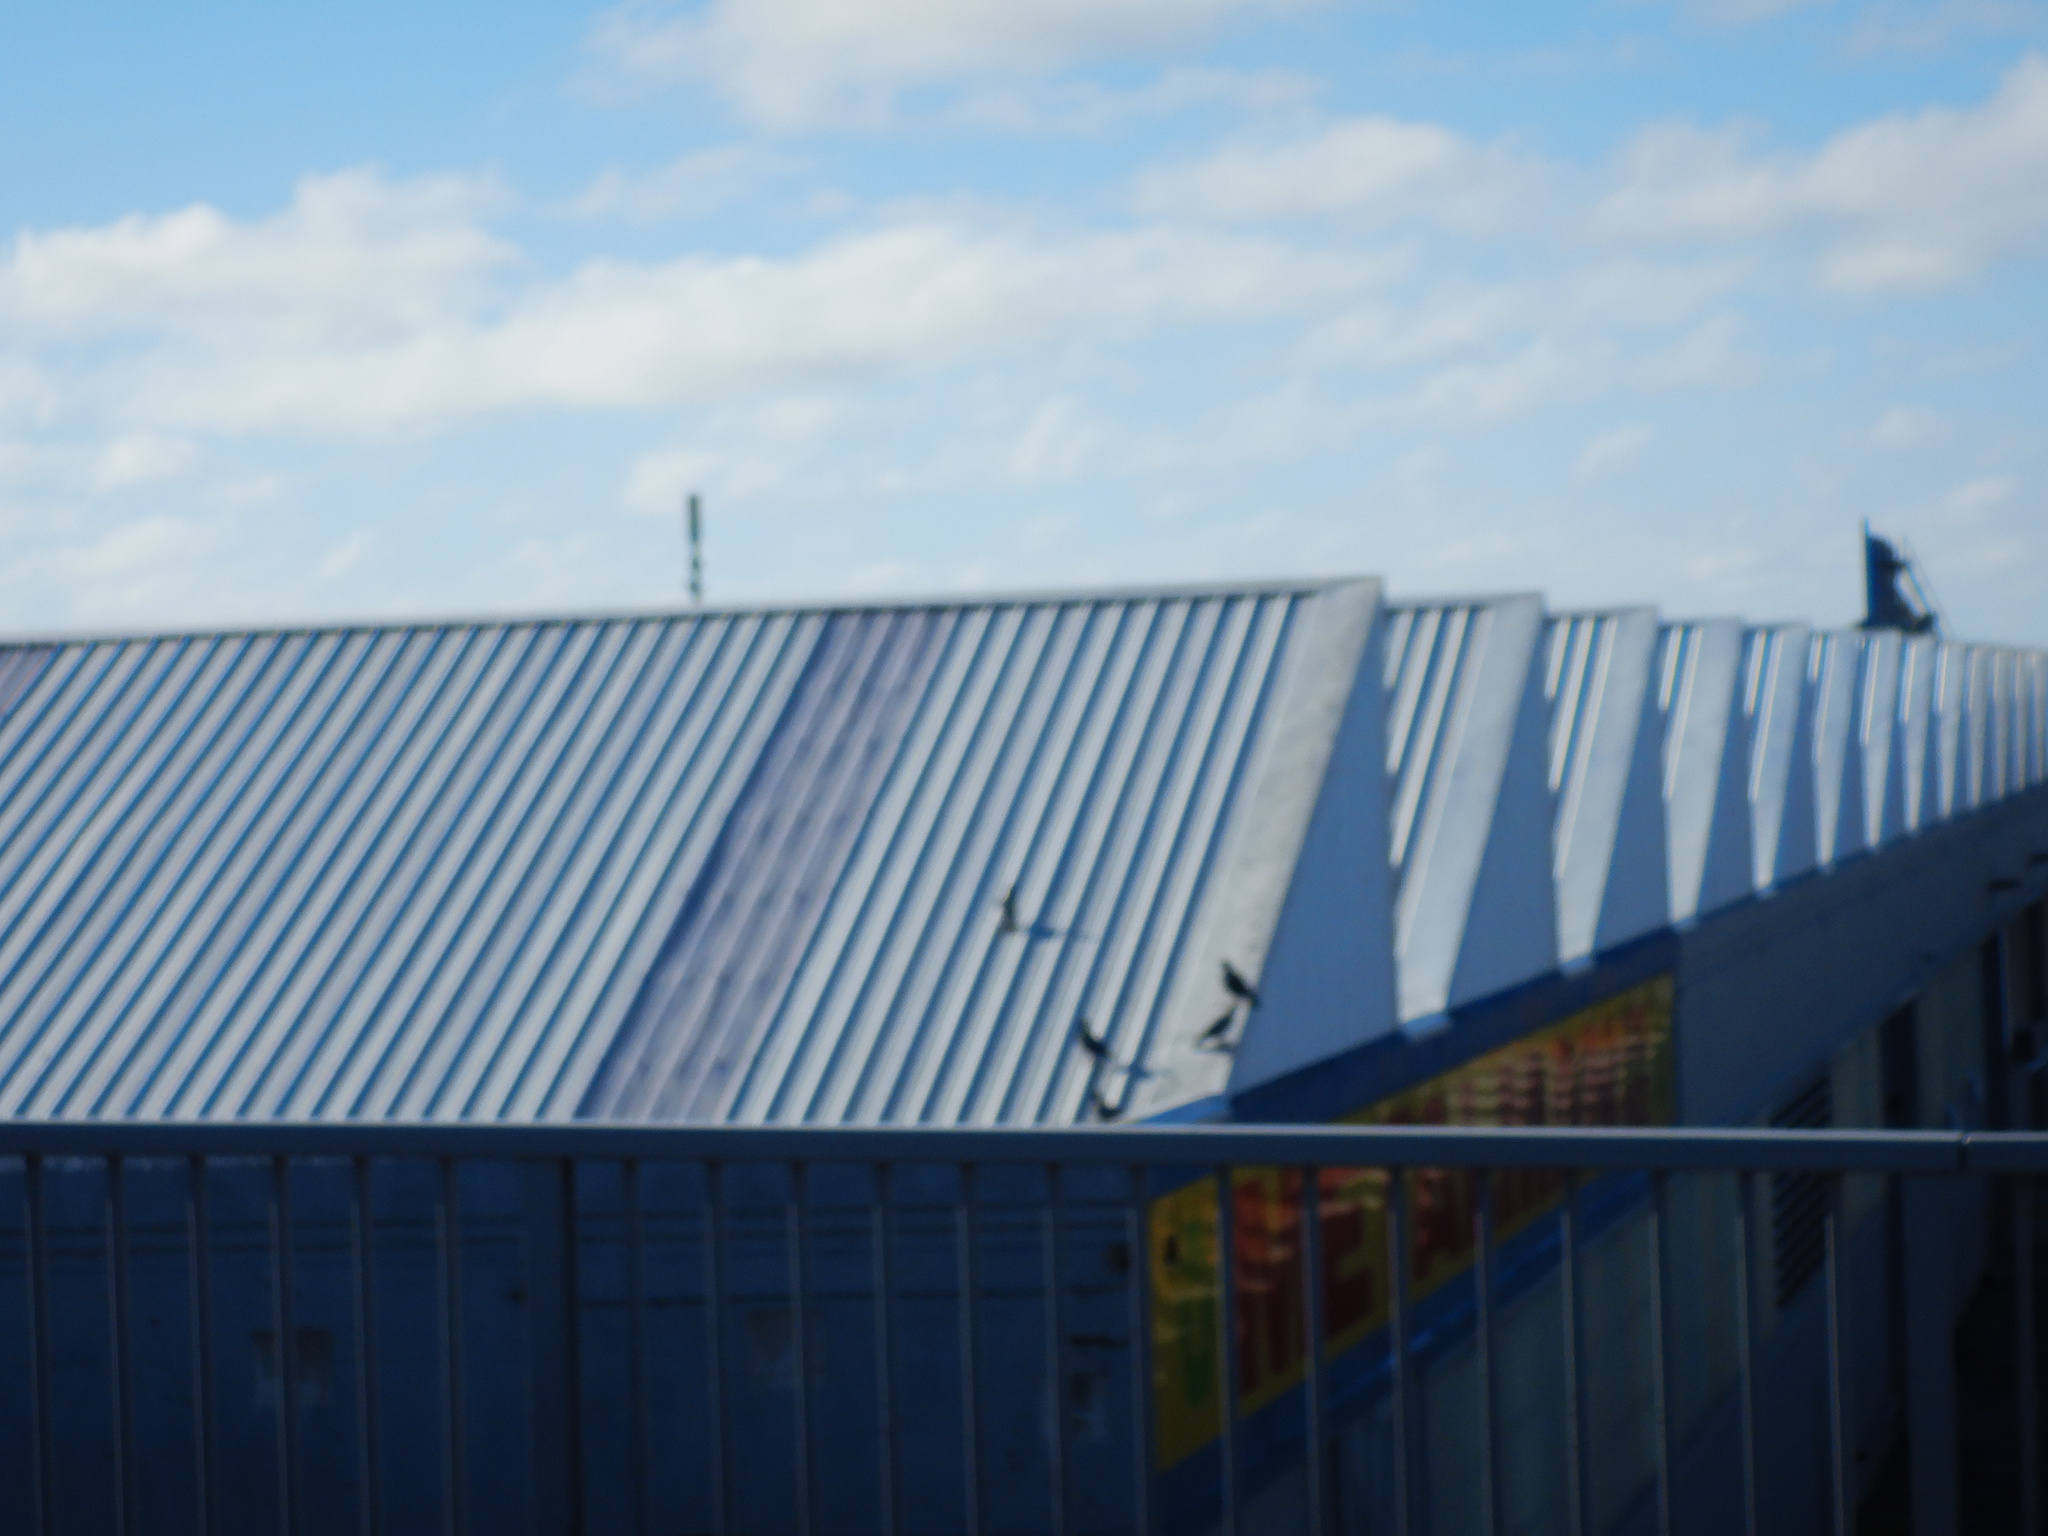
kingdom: Animalia
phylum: Chordata
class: Aves
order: Columbiformes
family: Columbidae
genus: Columba
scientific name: Columba livia
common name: Rock pigeon
